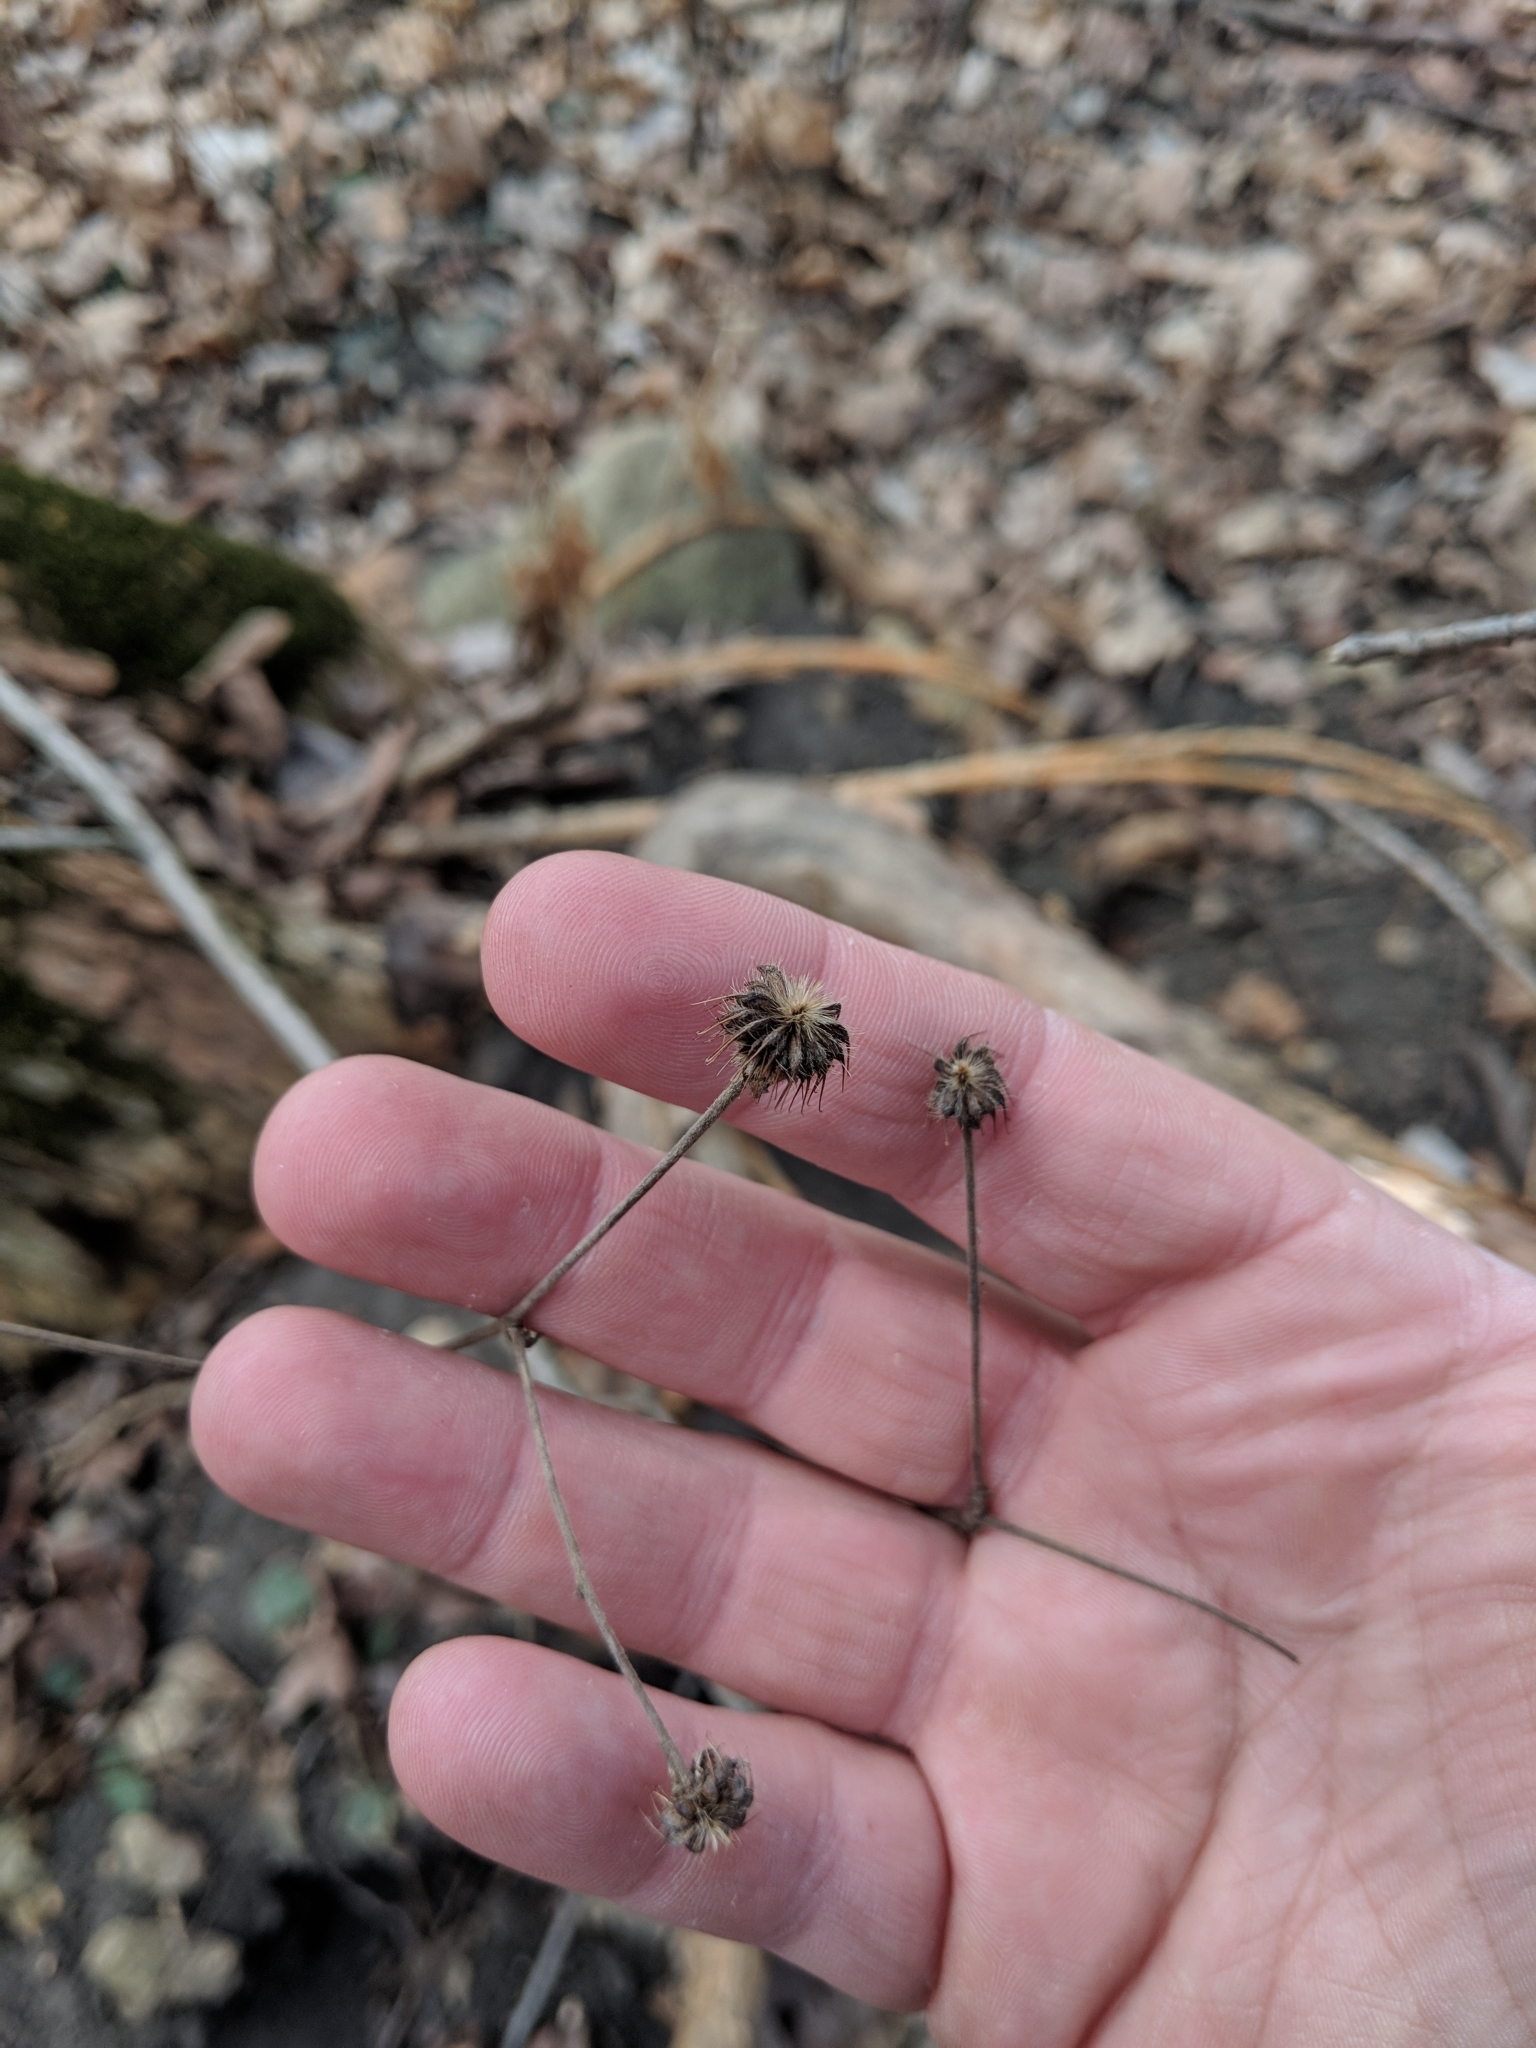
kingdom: Plantae
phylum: Tracheophyta
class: Magnoliopsida
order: Rosales
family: Rosaceae
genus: Geum
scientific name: Geum canadense
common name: White avens
